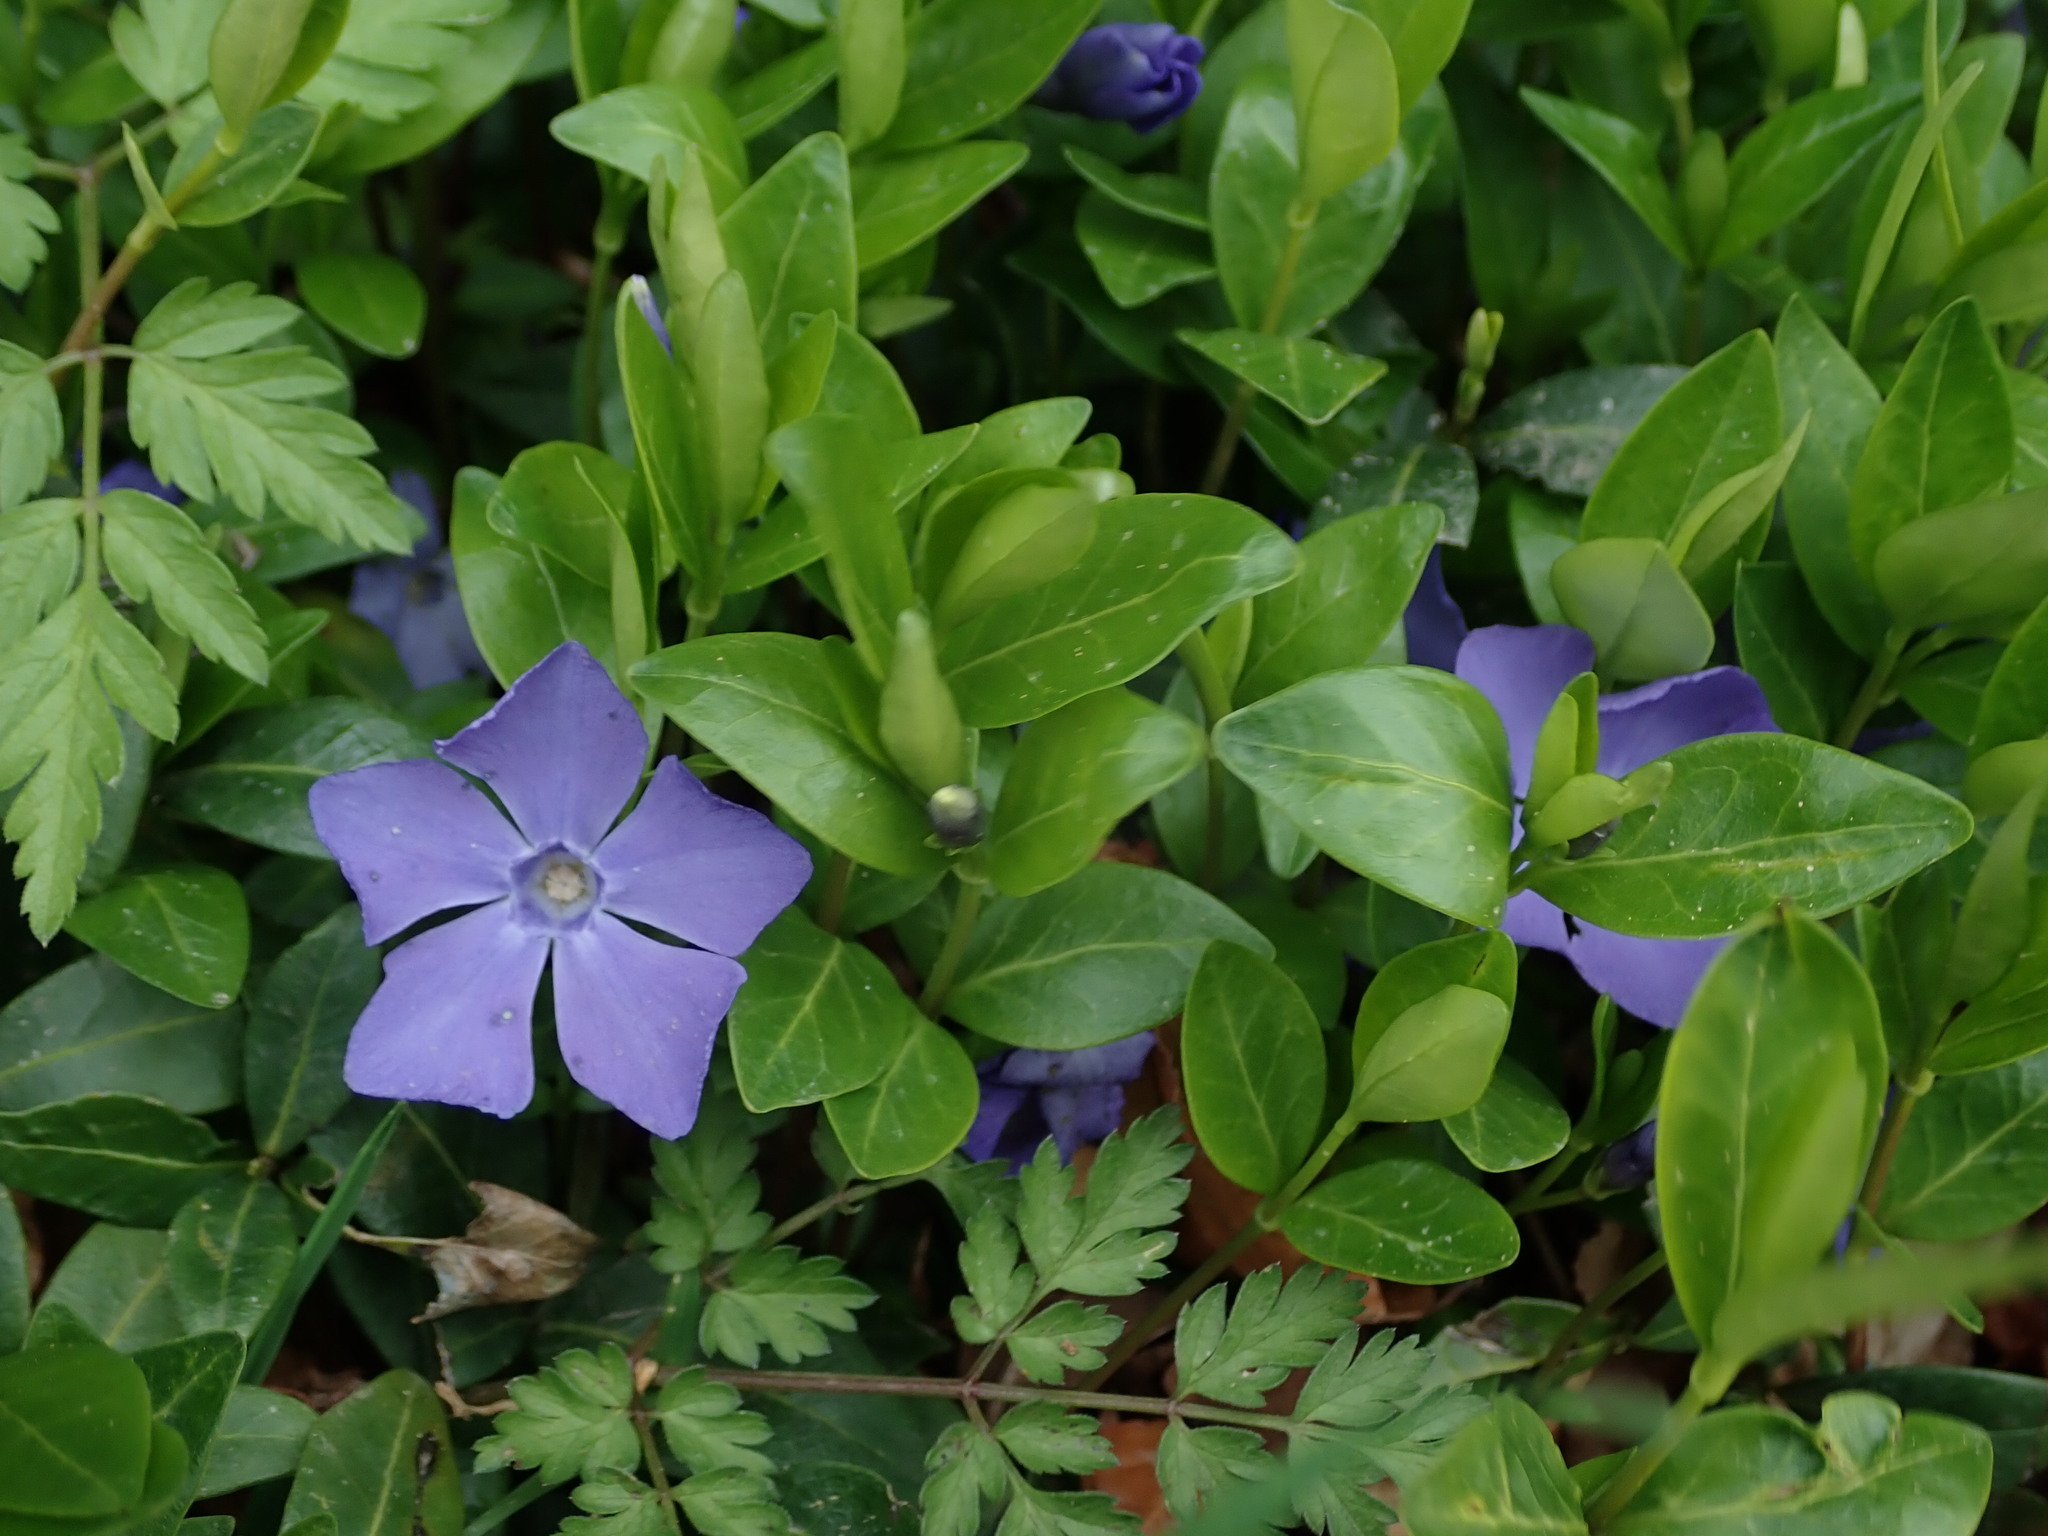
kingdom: Plantae
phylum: Tracheophyta
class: Magnoliopsida
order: Gentianales
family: Apocynaceae
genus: Vinca
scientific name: Vinca minor
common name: Lesser periwinkle
